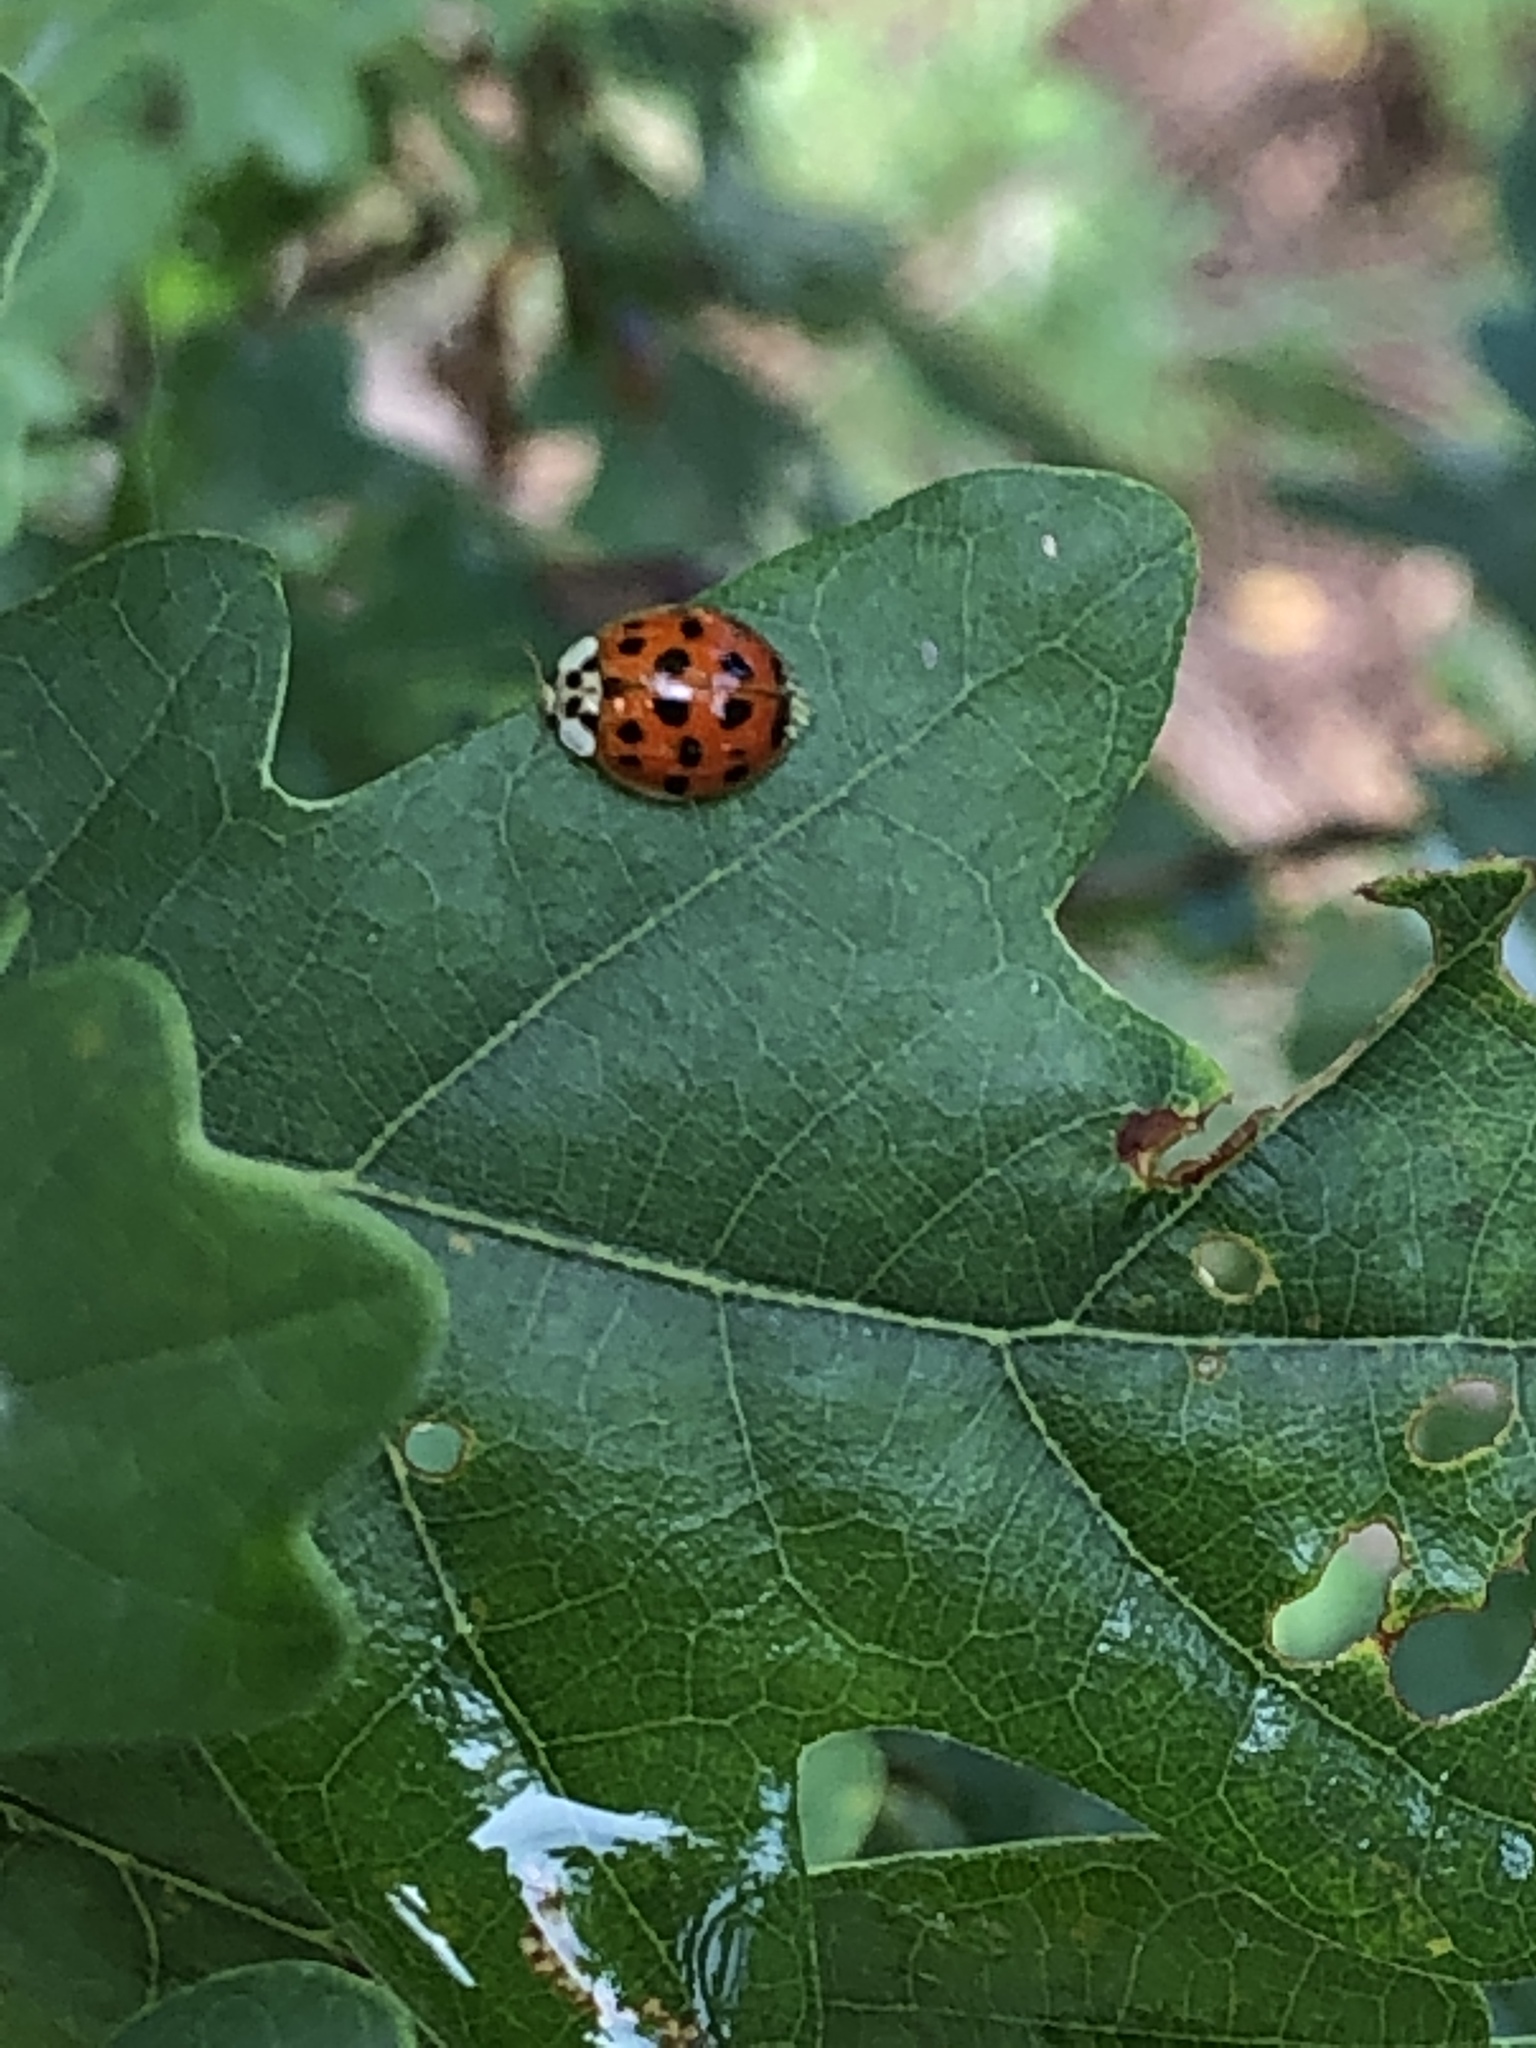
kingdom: Animalia
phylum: Arthropoda
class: Insecta
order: Coleoptera
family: Coccinellidae
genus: Harmonia
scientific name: Harmonia axyridis
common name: Harlequin ladybird
